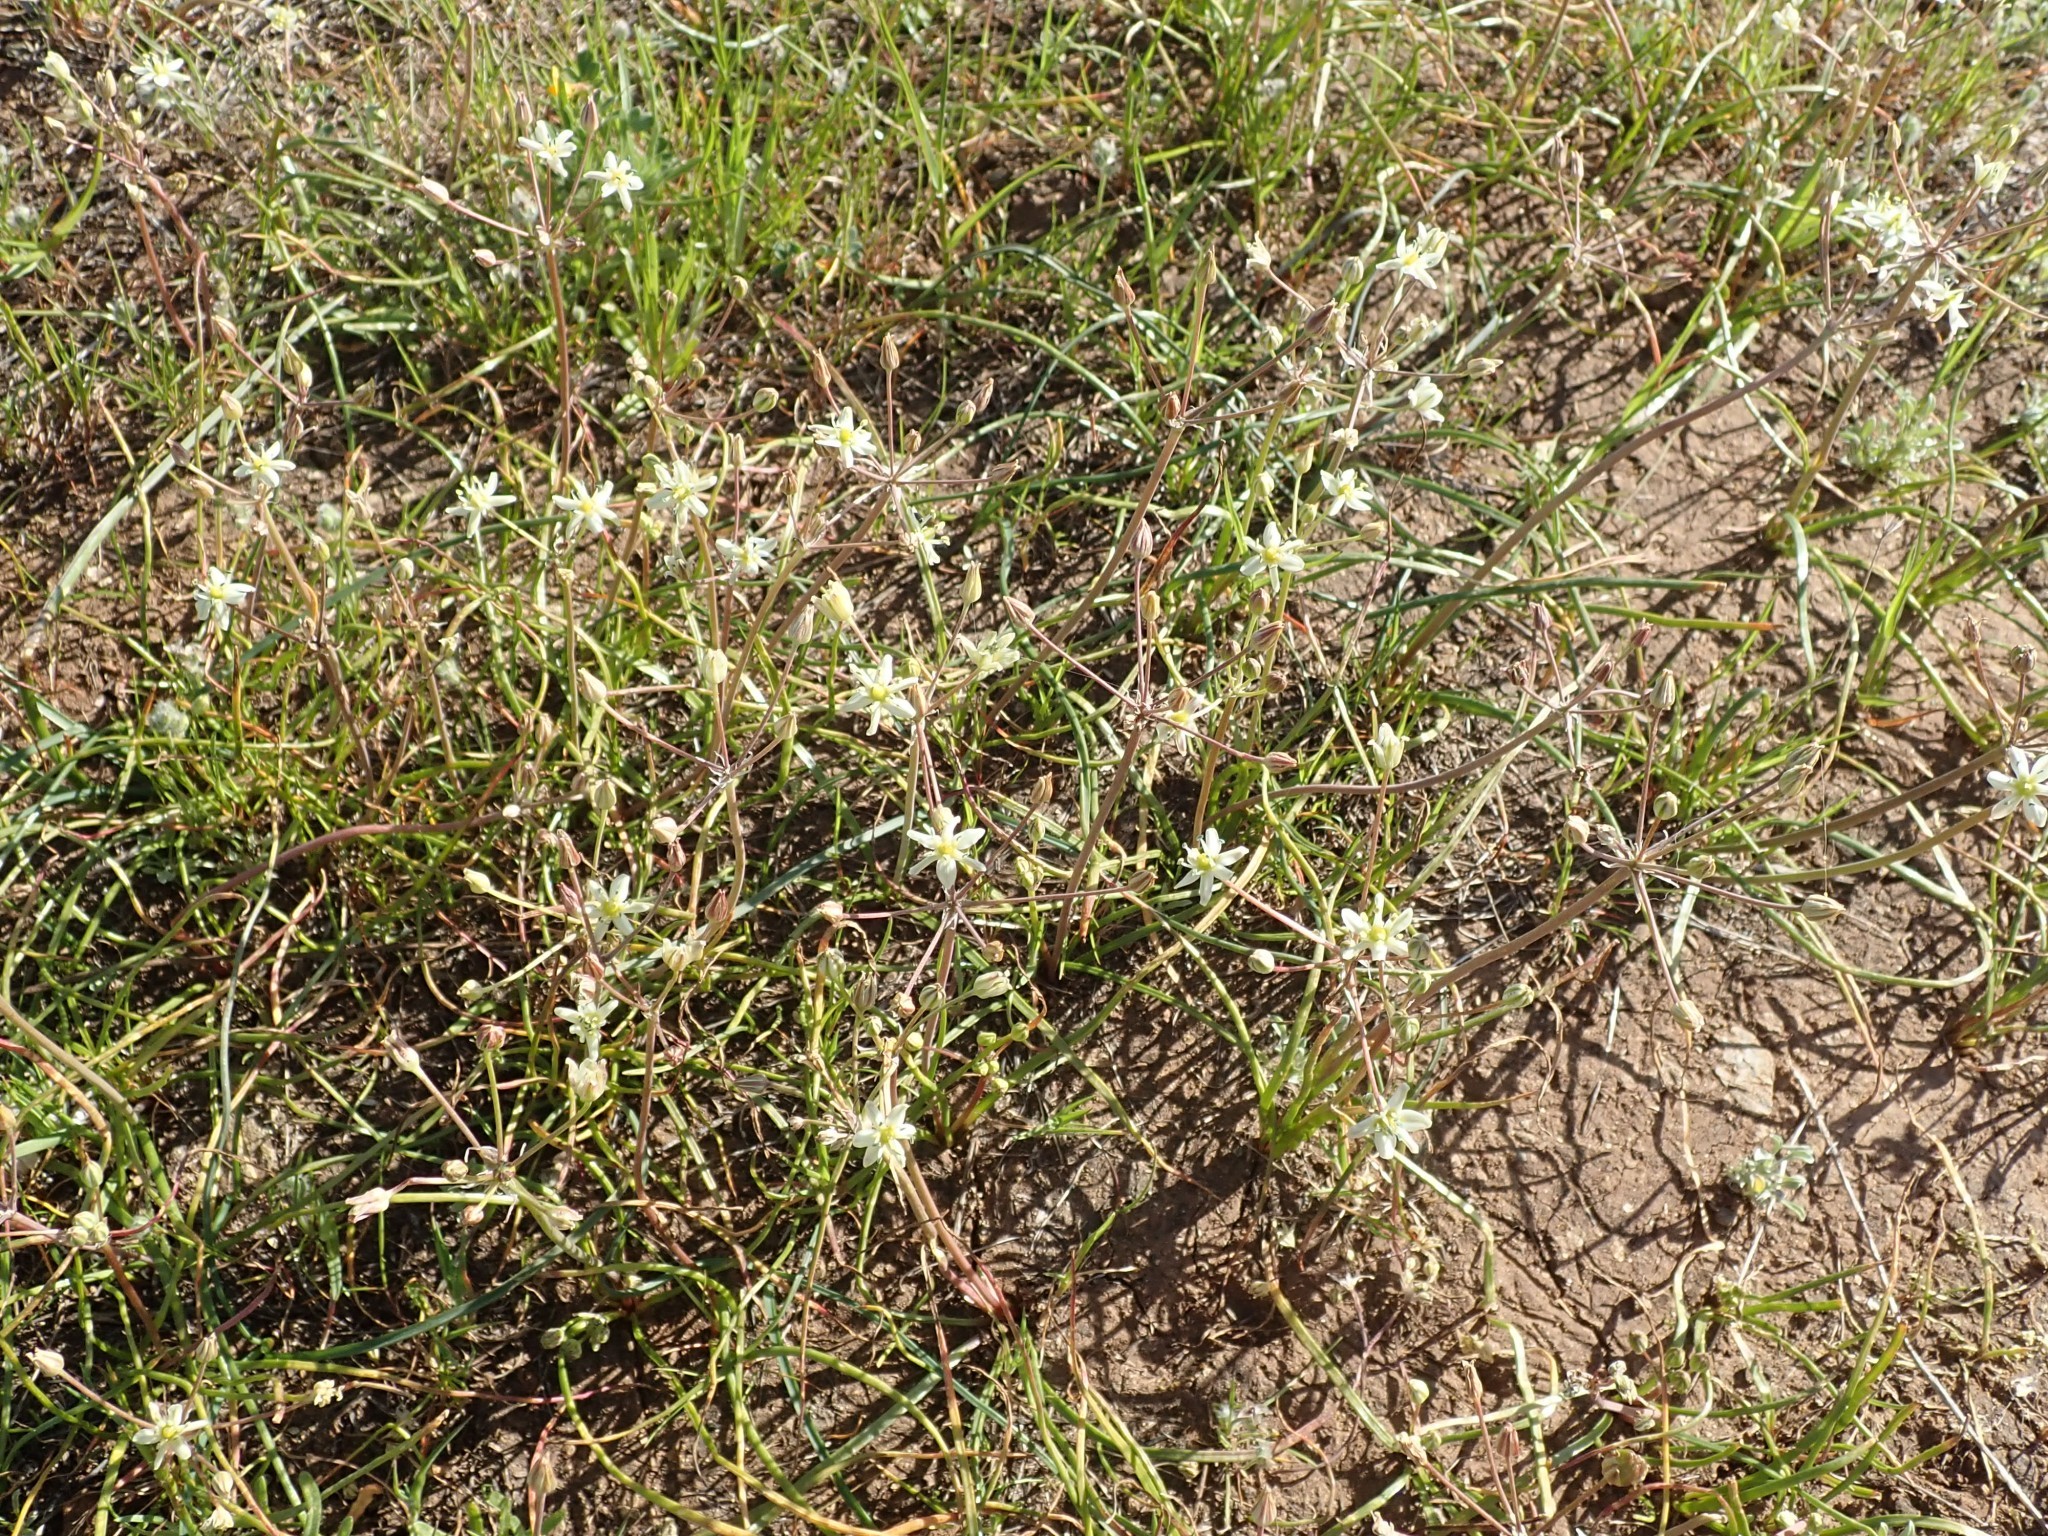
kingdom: Plantae
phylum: Tracheophyta
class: Liliopsida
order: Asparagales
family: Asparagaceae
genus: Muilla
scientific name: Muilla maritima
